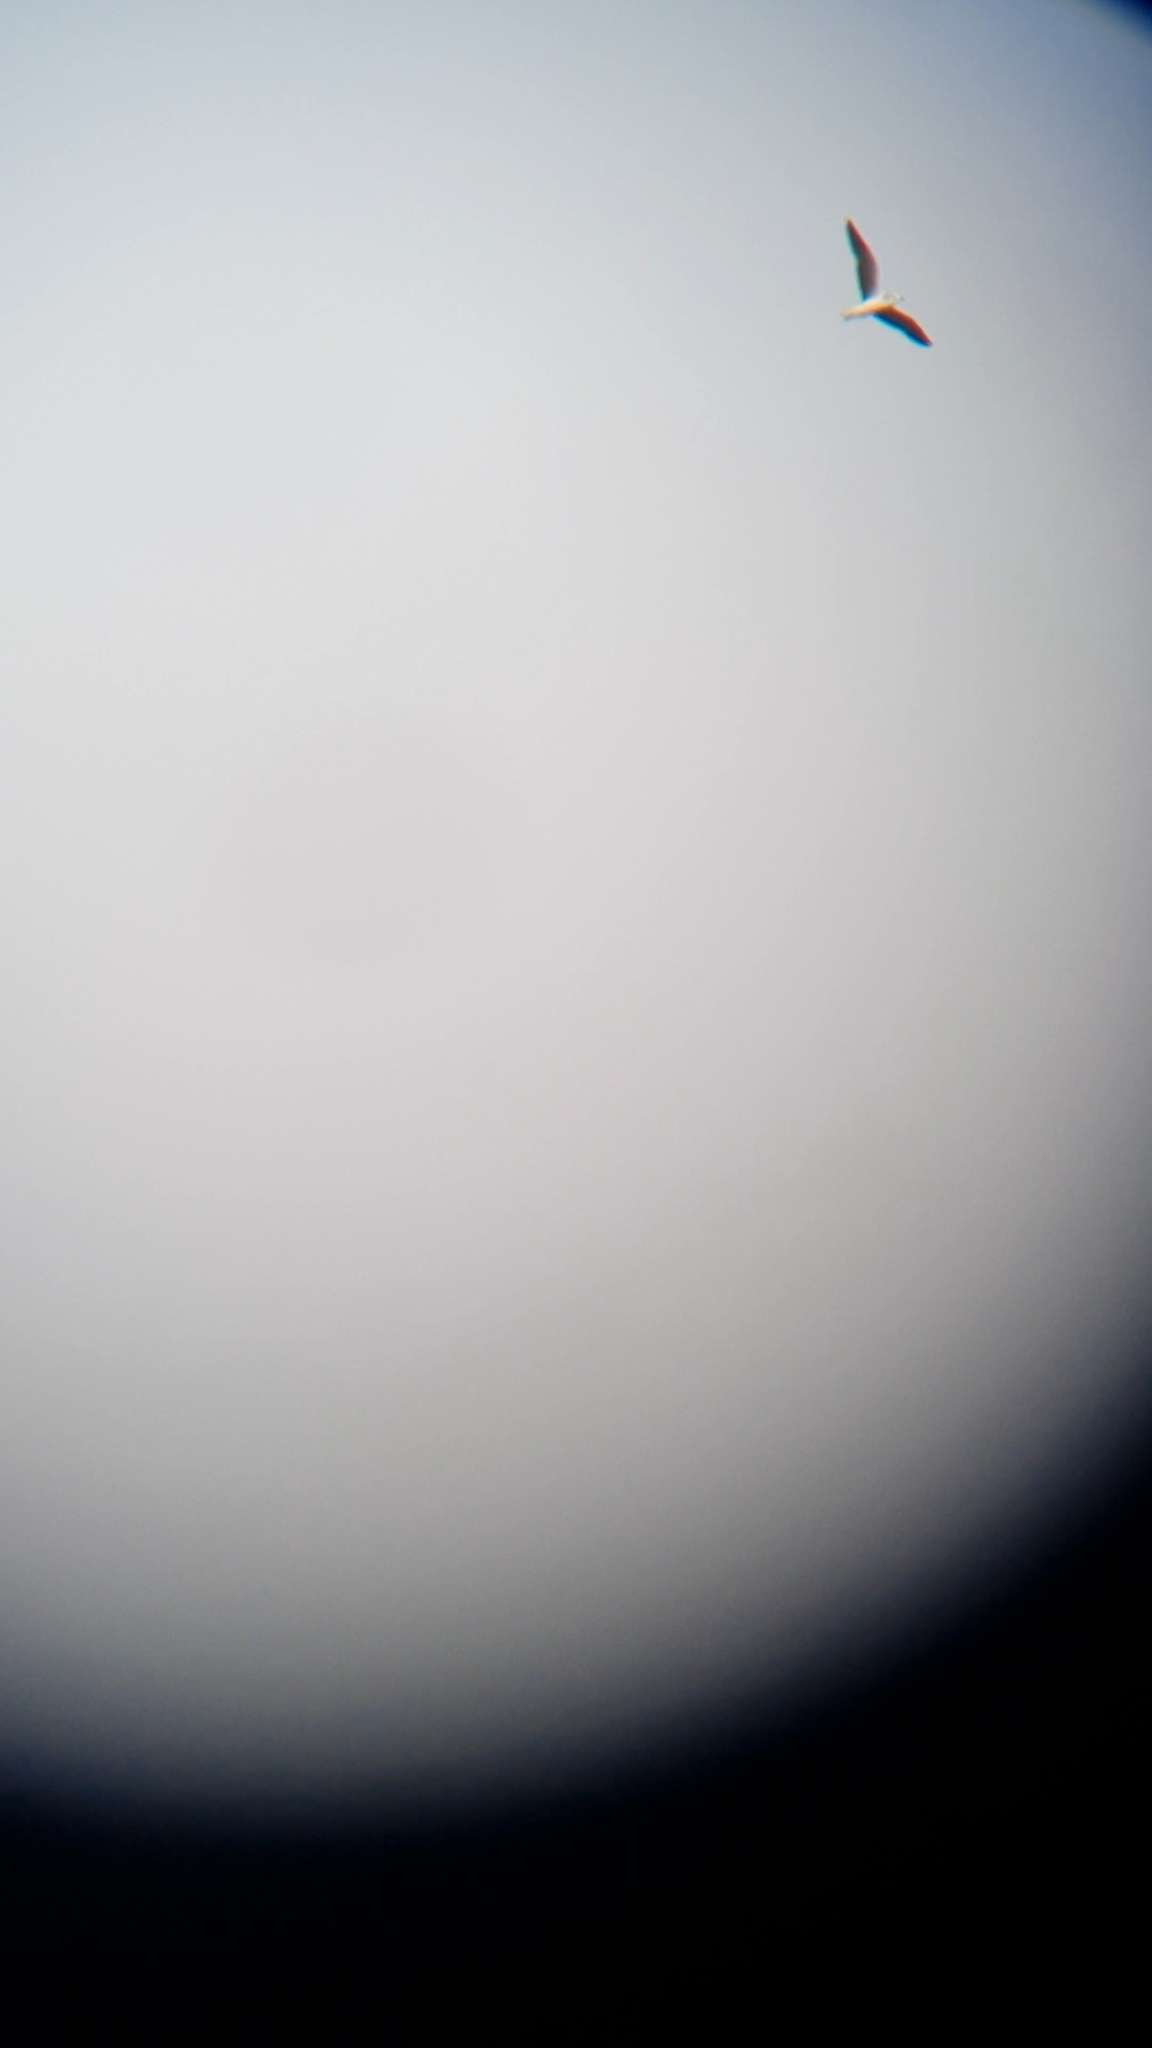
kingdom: Animalia
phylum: Chordata
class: Aves
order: Charadriiformes
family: Laridae
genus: Hydrocoloeus
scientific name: Hydrocoloeus minutus
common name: Little gull
